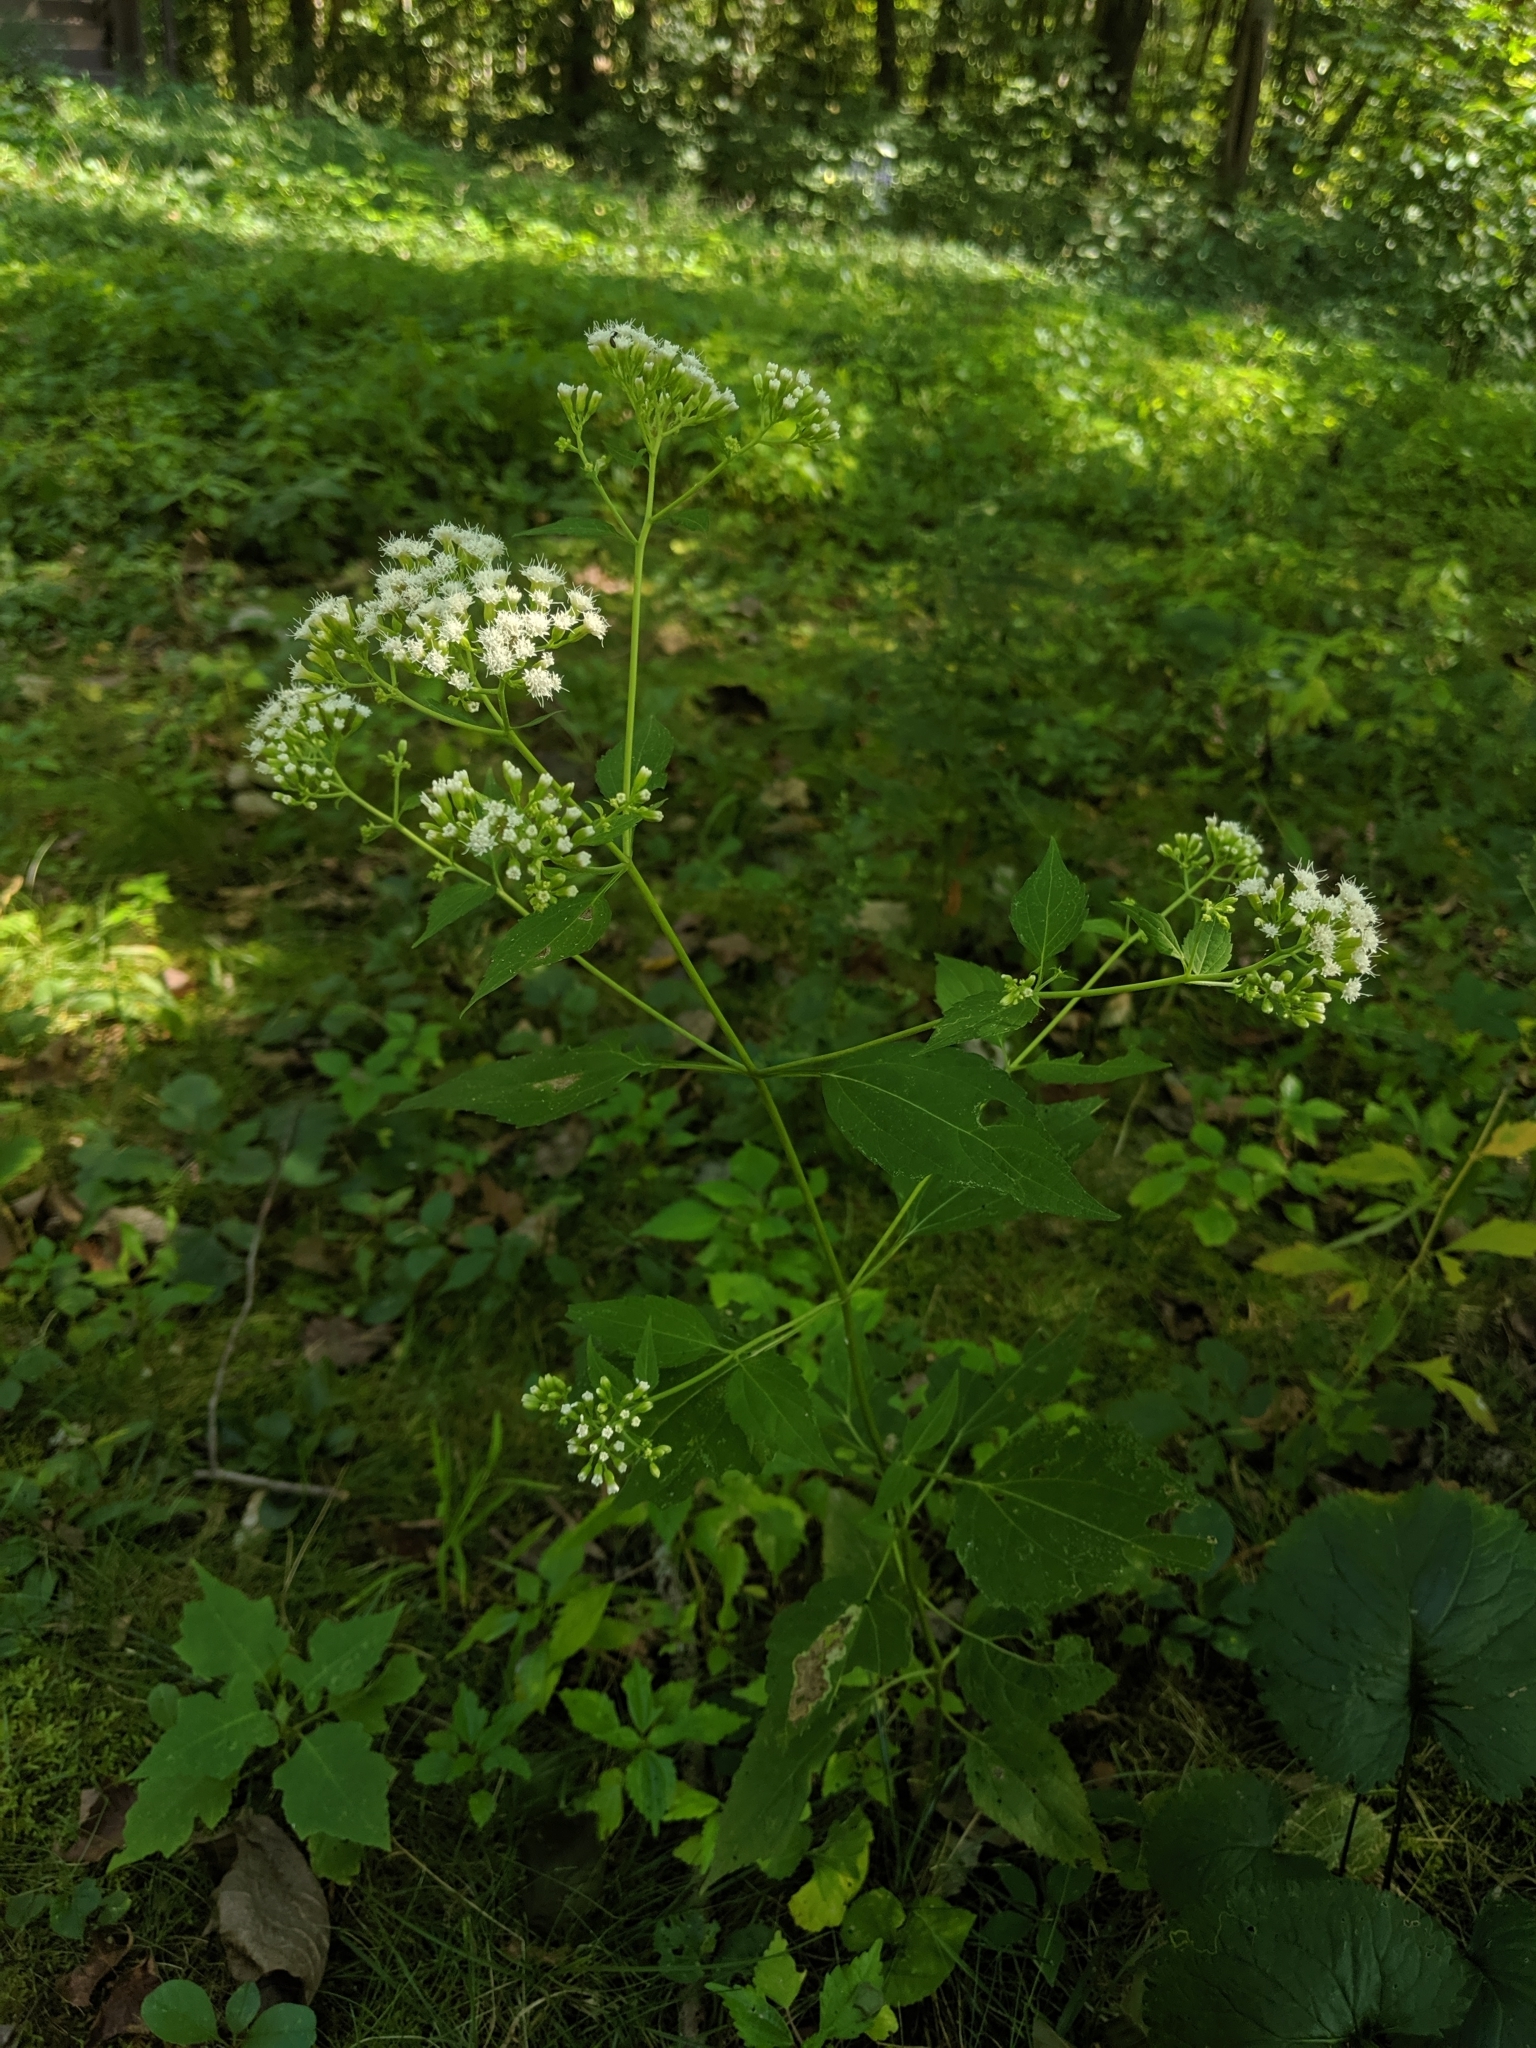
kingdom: Plantae
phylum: Tracheophyta
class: Magnoliopsida
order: Asterales
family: Asteraceae
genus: Ageratina
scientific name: Ageratina altissima
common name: White snakeroot
